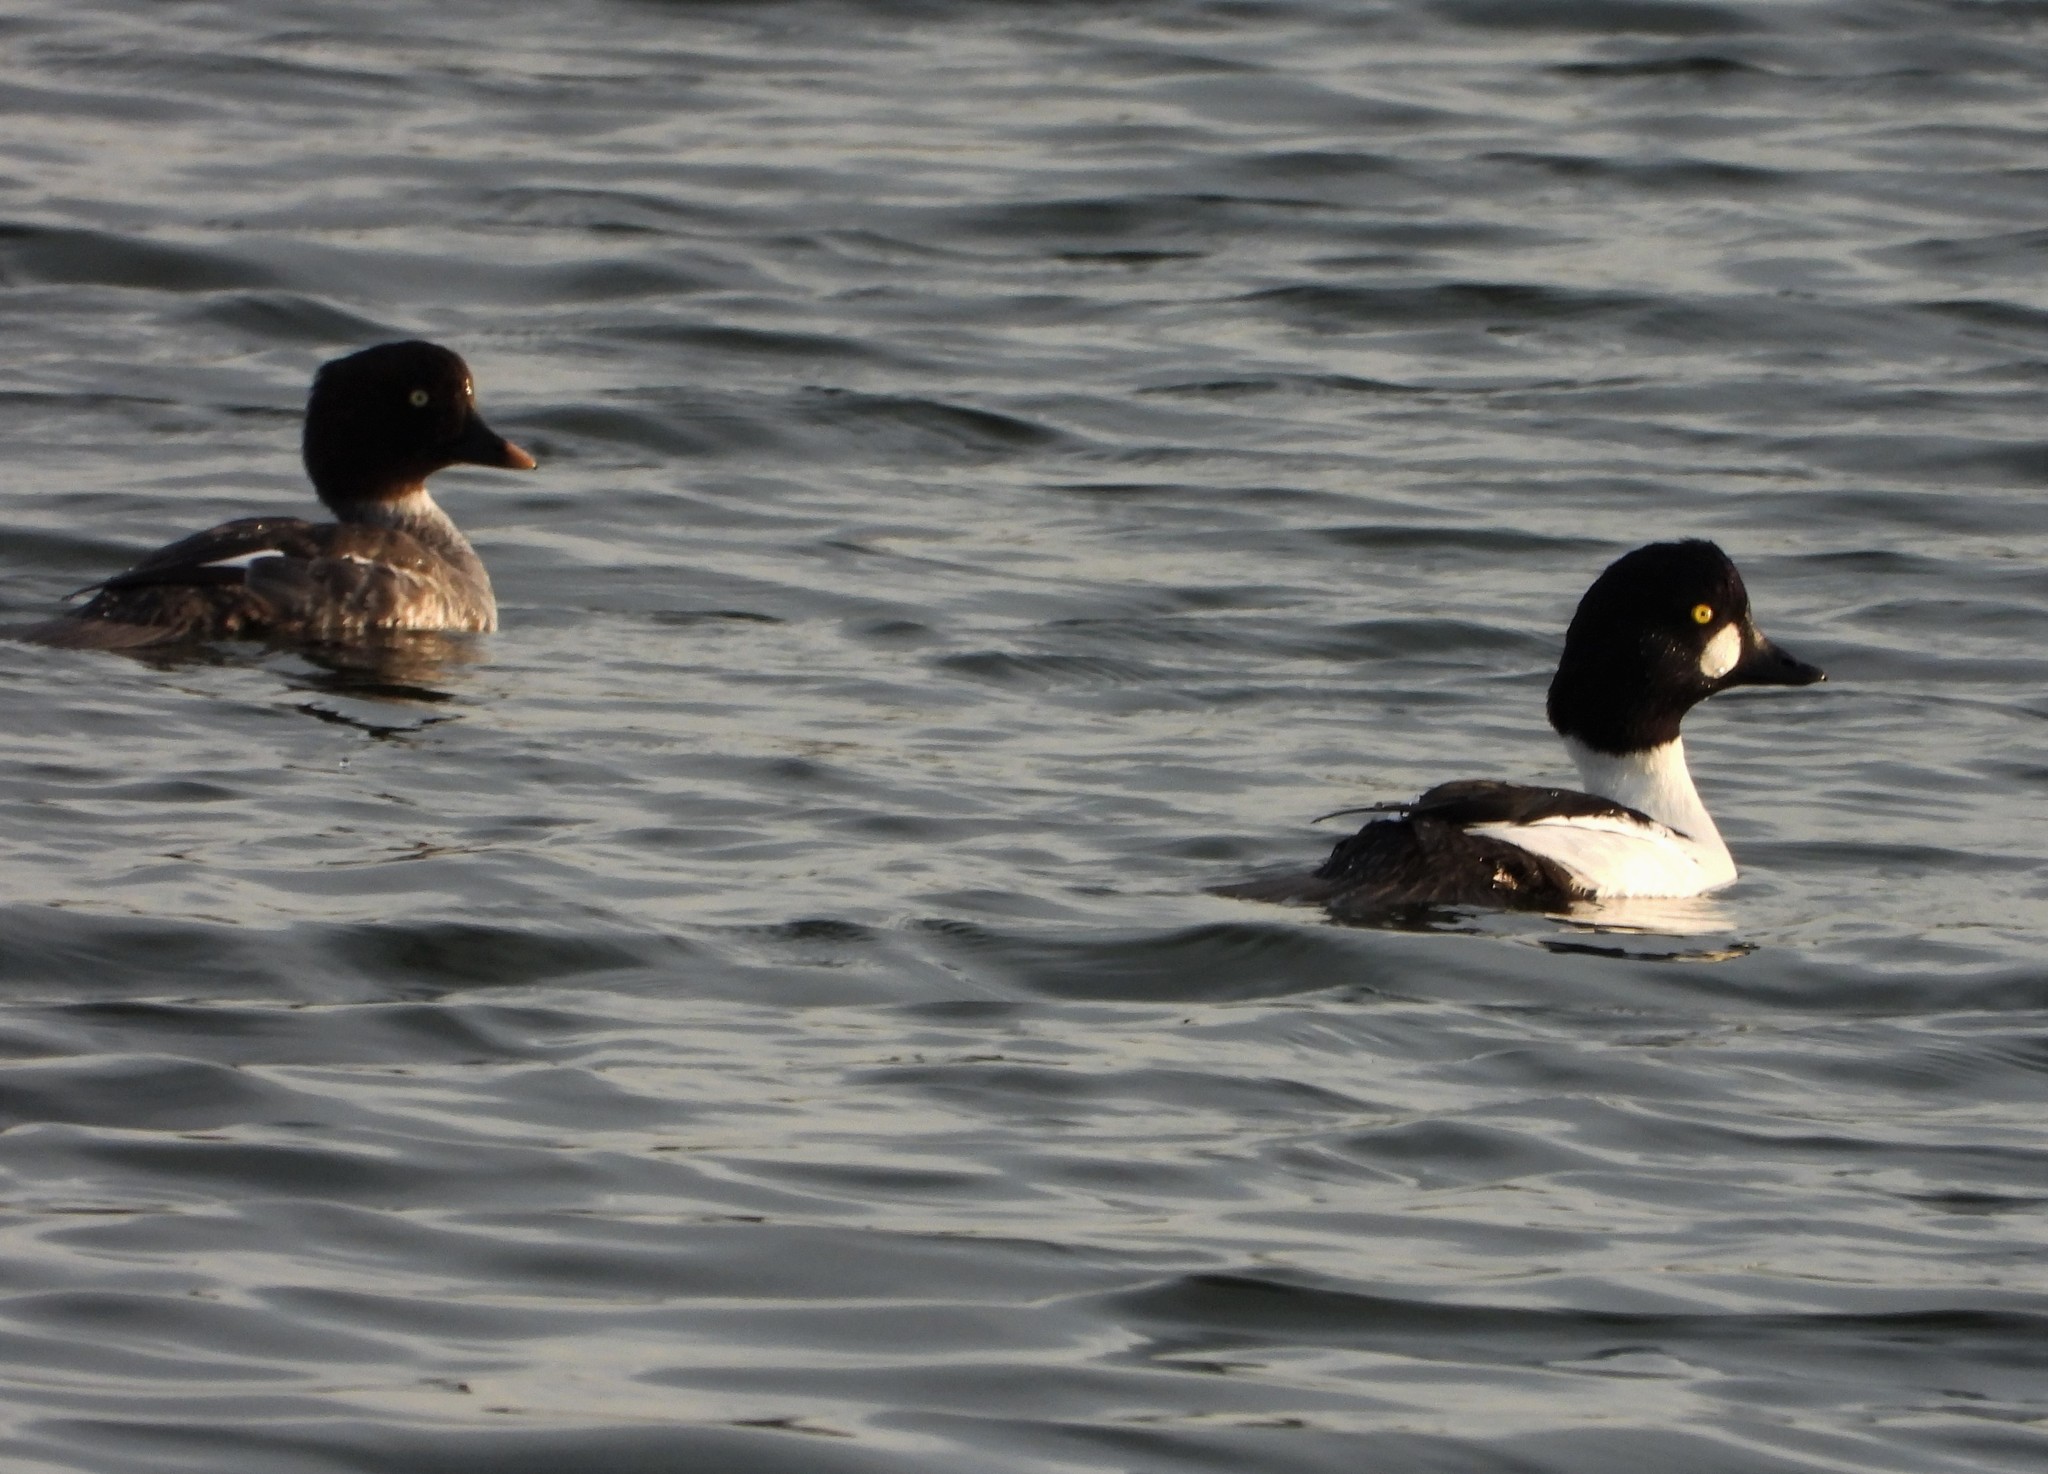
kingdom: Animalia
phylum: Chordata
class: Aves
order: Anseriformes
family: Anatidae
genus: Bucephala
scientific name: Bucephala clangula
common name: Common goldeneye
